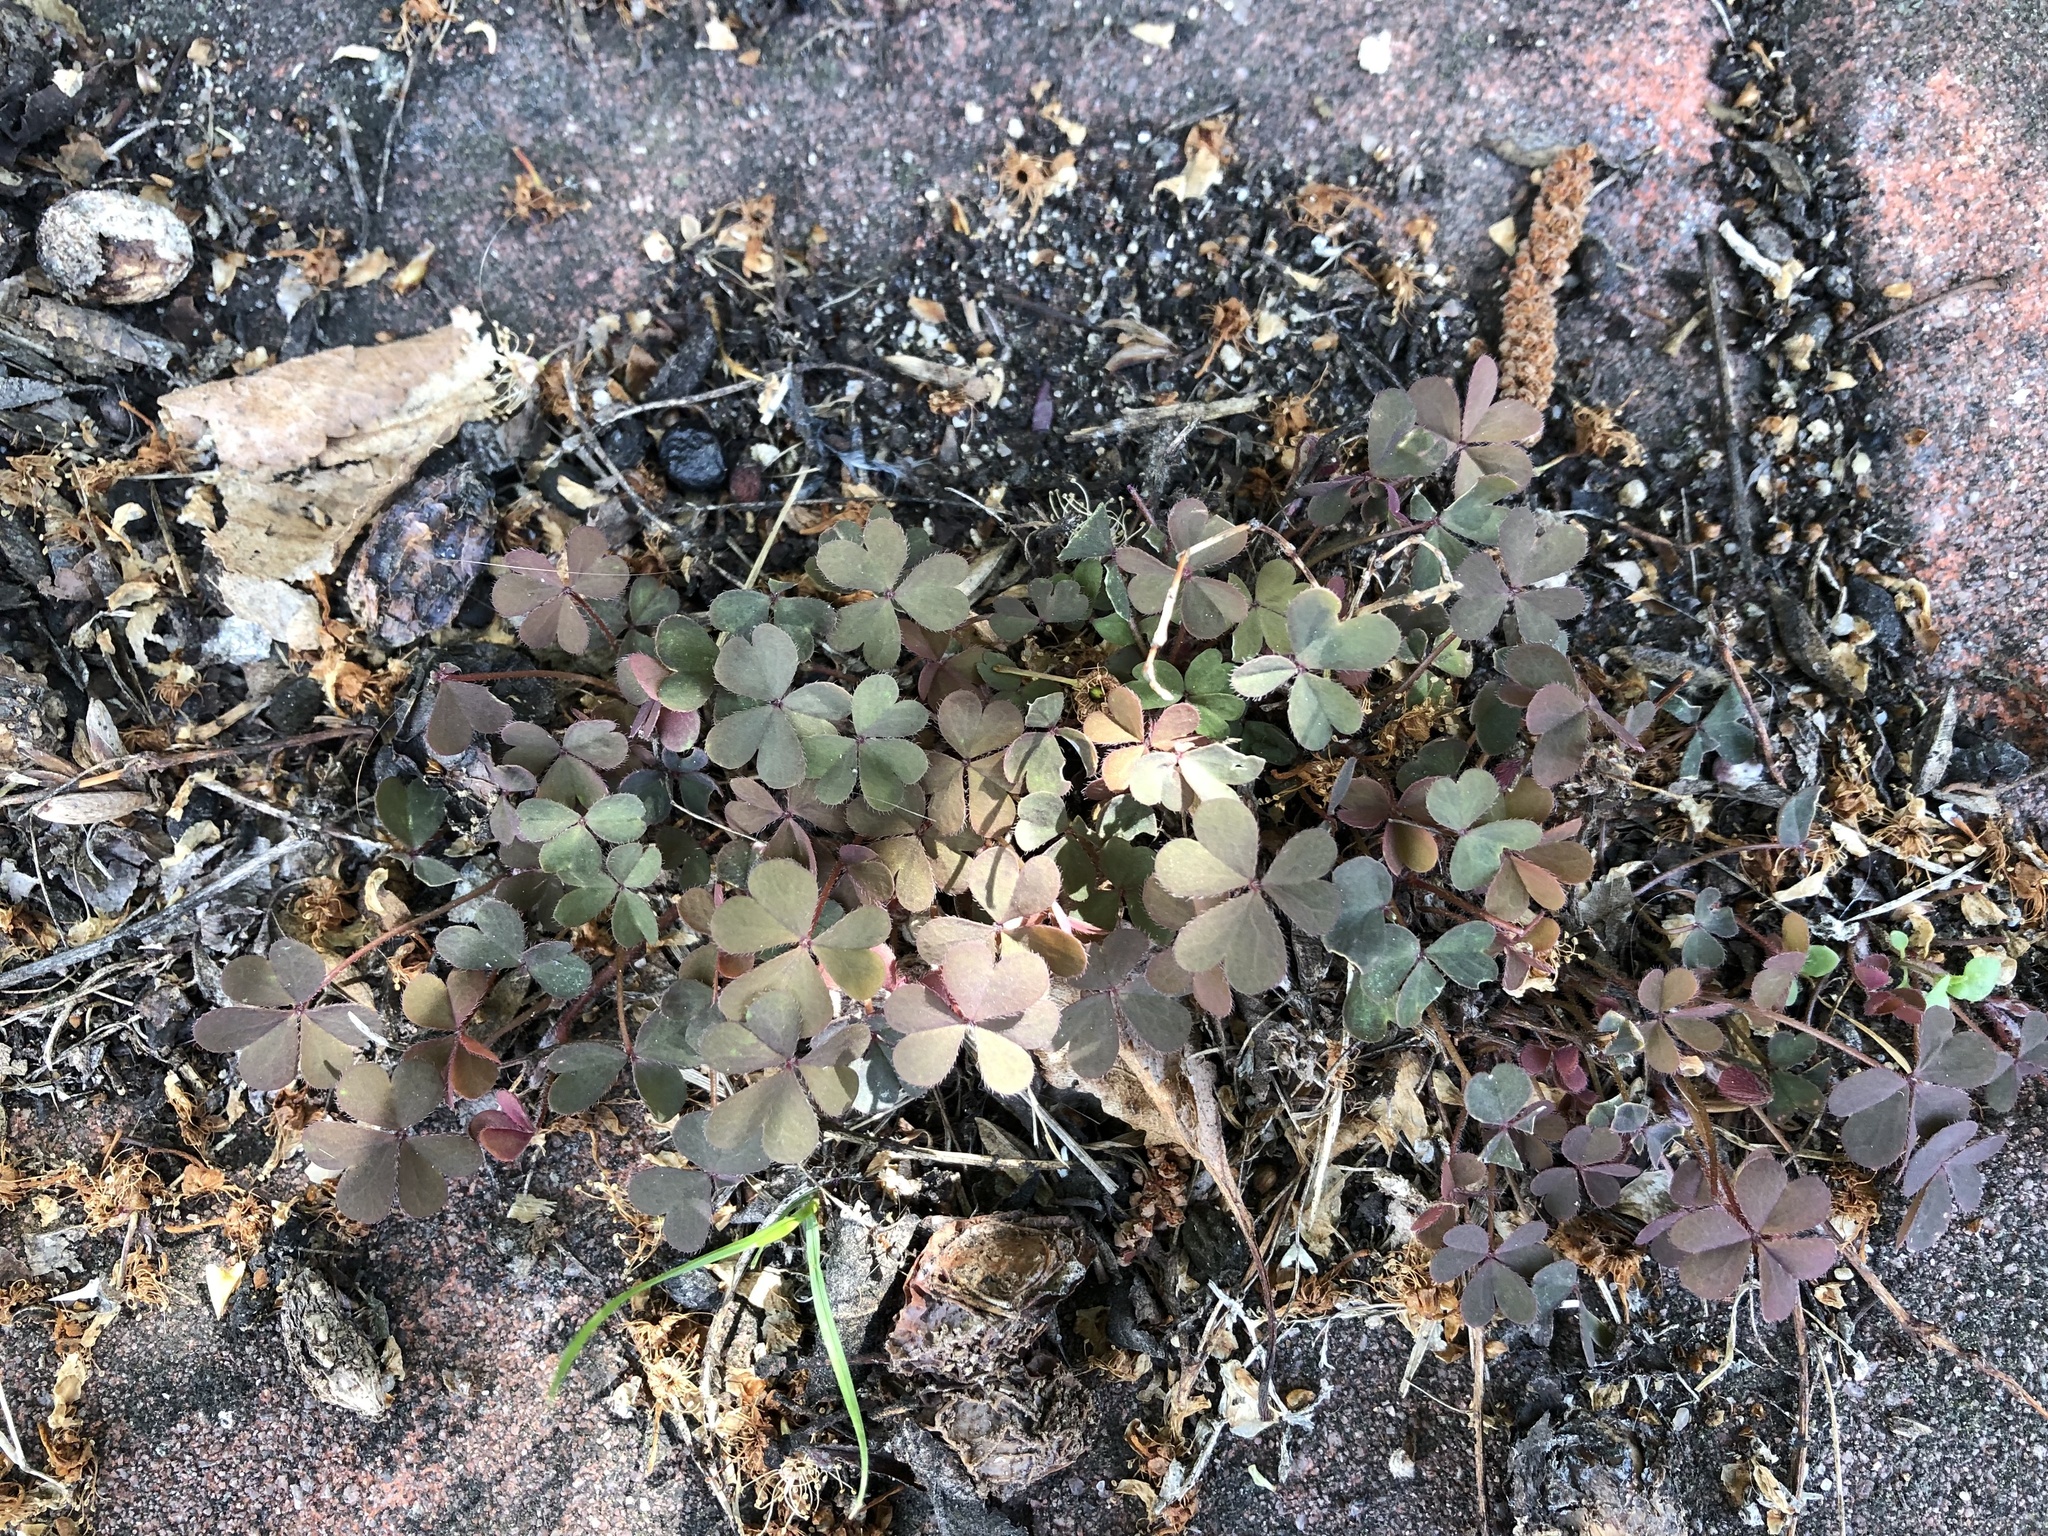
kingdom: Plantae
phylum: Tracheophyta
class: Magnoliopsida
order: Oxalidales
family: Oxalidaceae
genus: Oxalis
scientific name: Oxalis corniculata
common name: Procumbent yellow-sorrel
